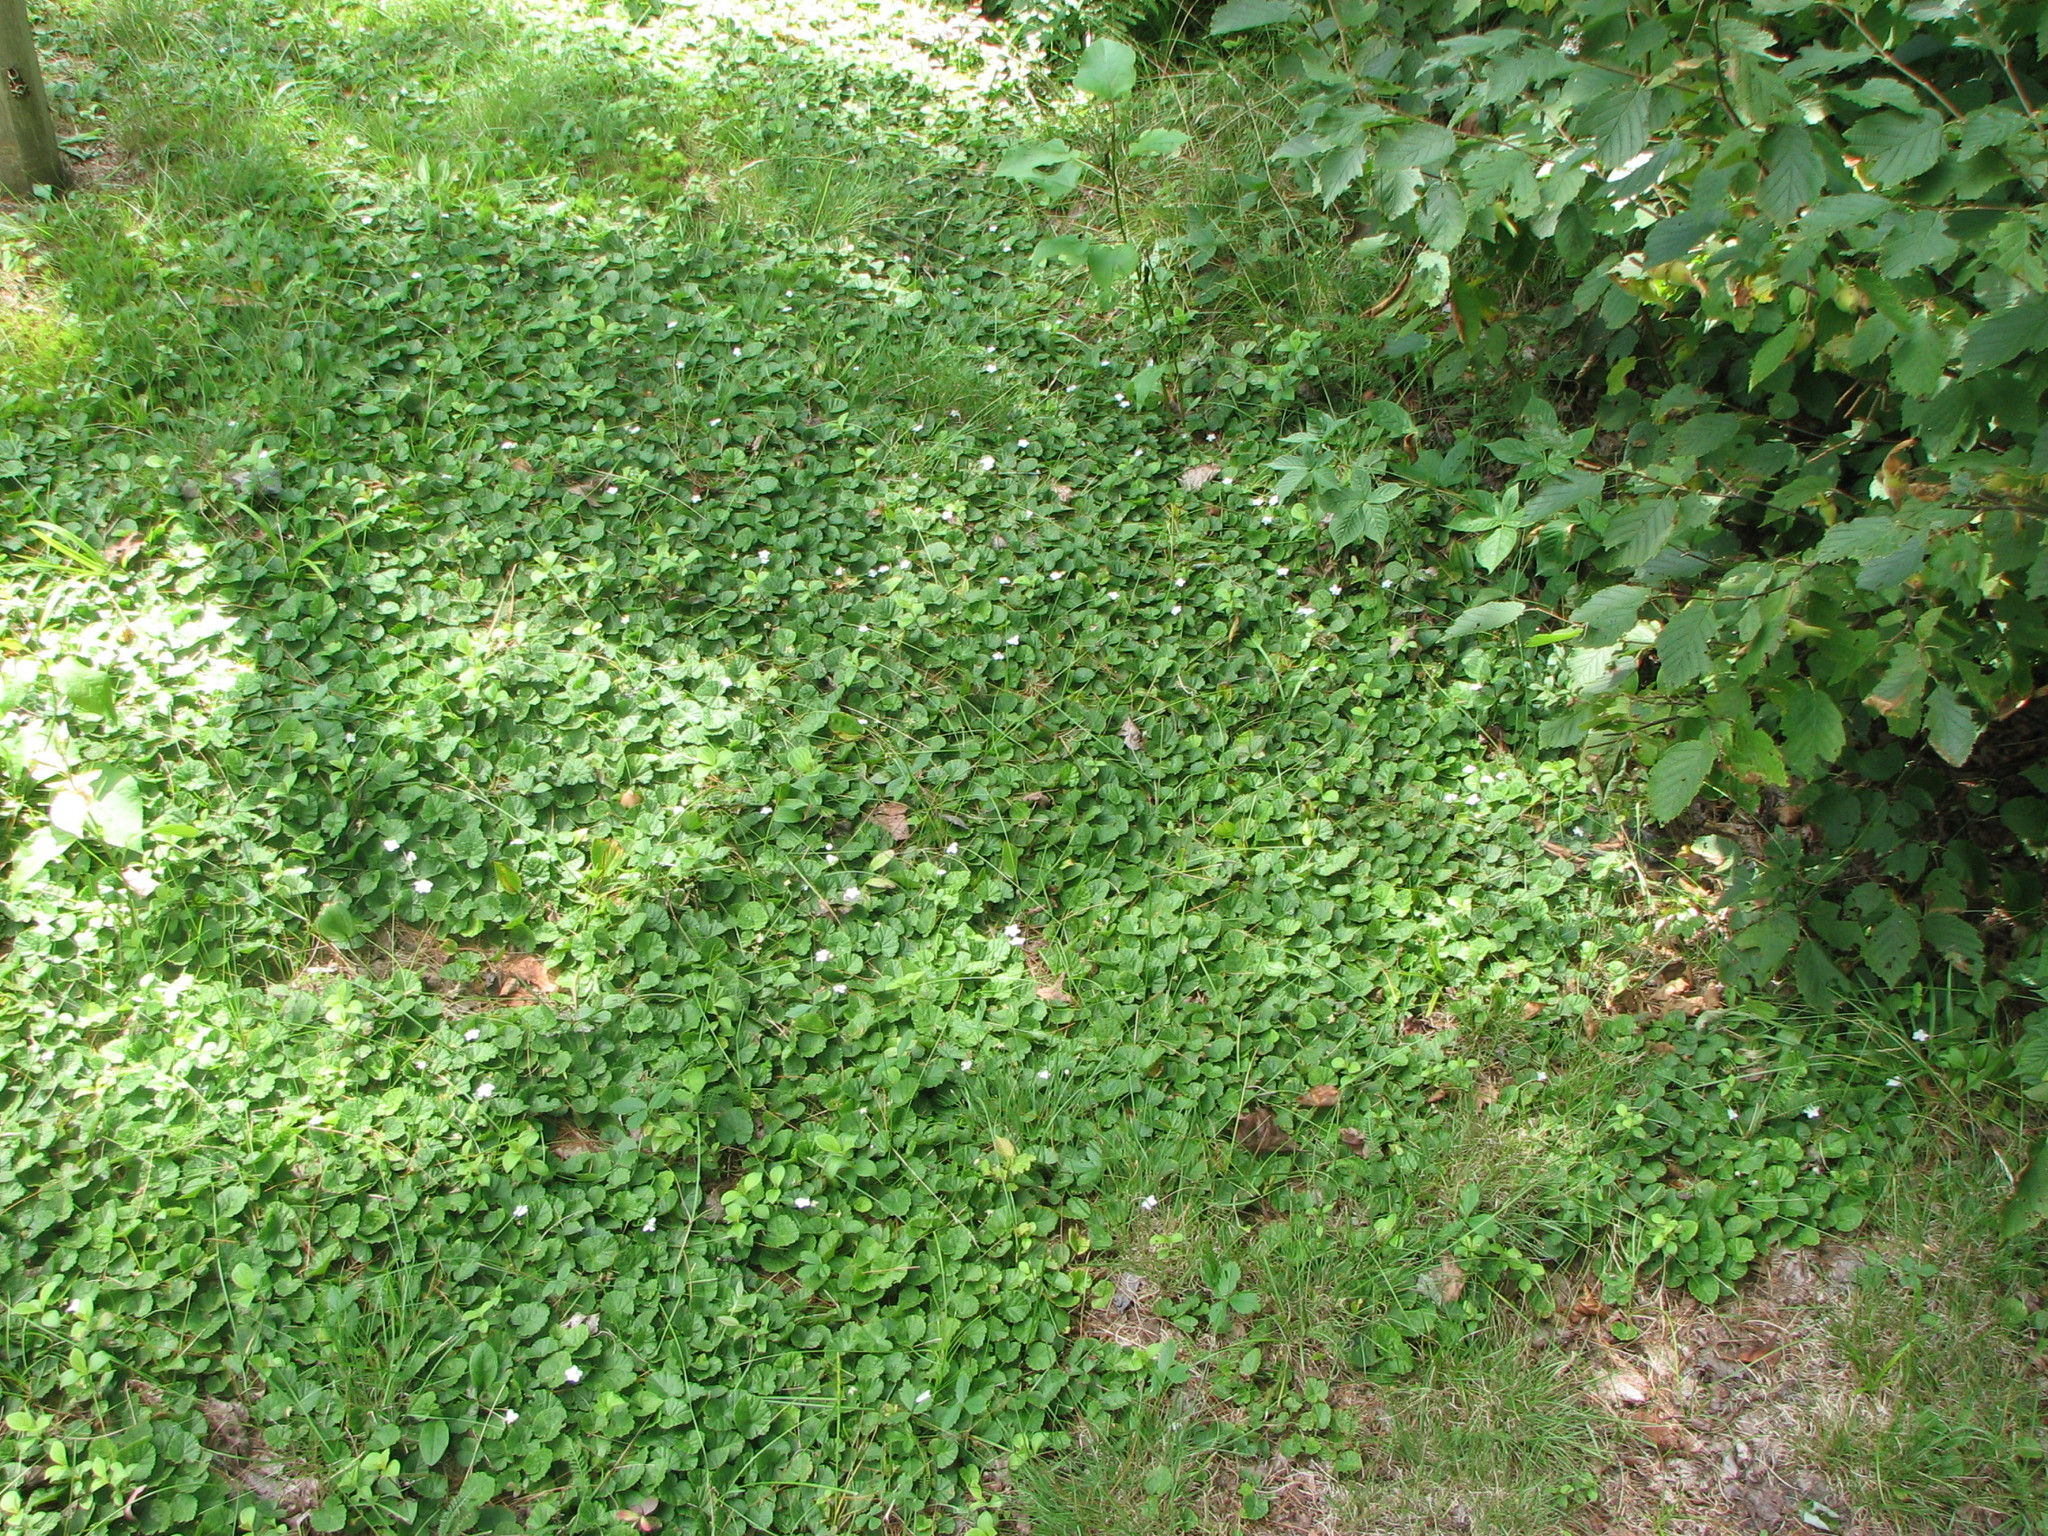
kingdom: Plantae
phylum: Tracheophyta
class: Magnoliopsida
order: Rosales
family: Rosaceae
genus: Dalibarda
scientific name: Dalibarda repens
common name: Dewdrop
